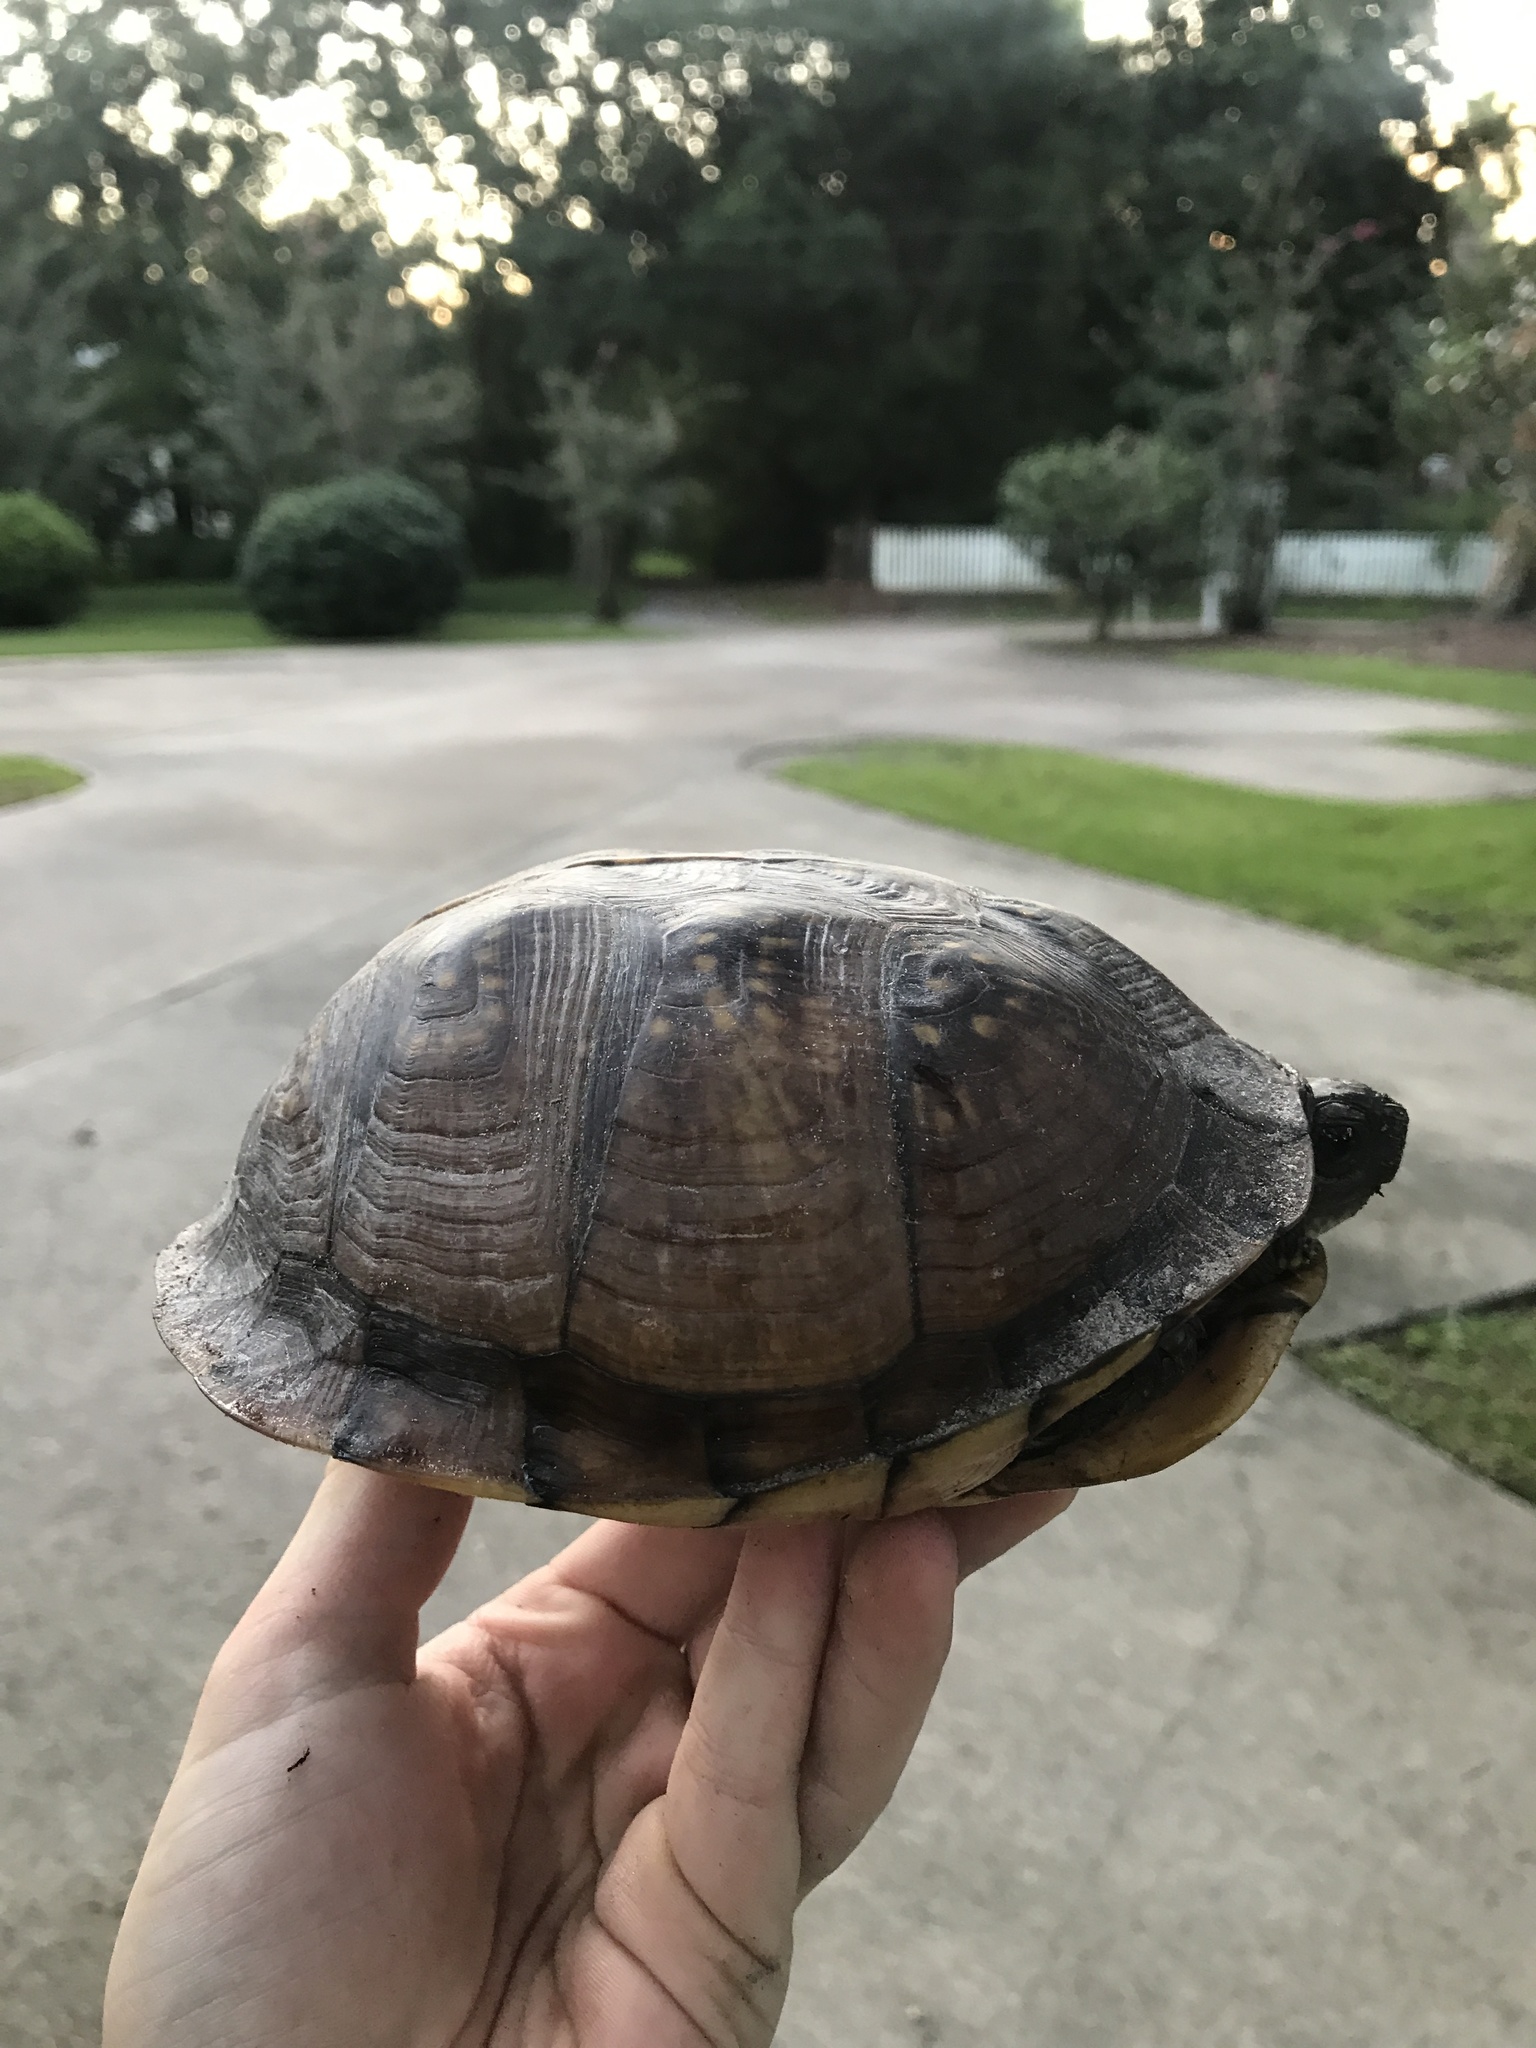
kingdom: Animalia
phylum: Chordata
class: Testudines
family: Emydidae
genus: Terrapene
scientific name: Terrapene carolina
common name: Common box turtle
